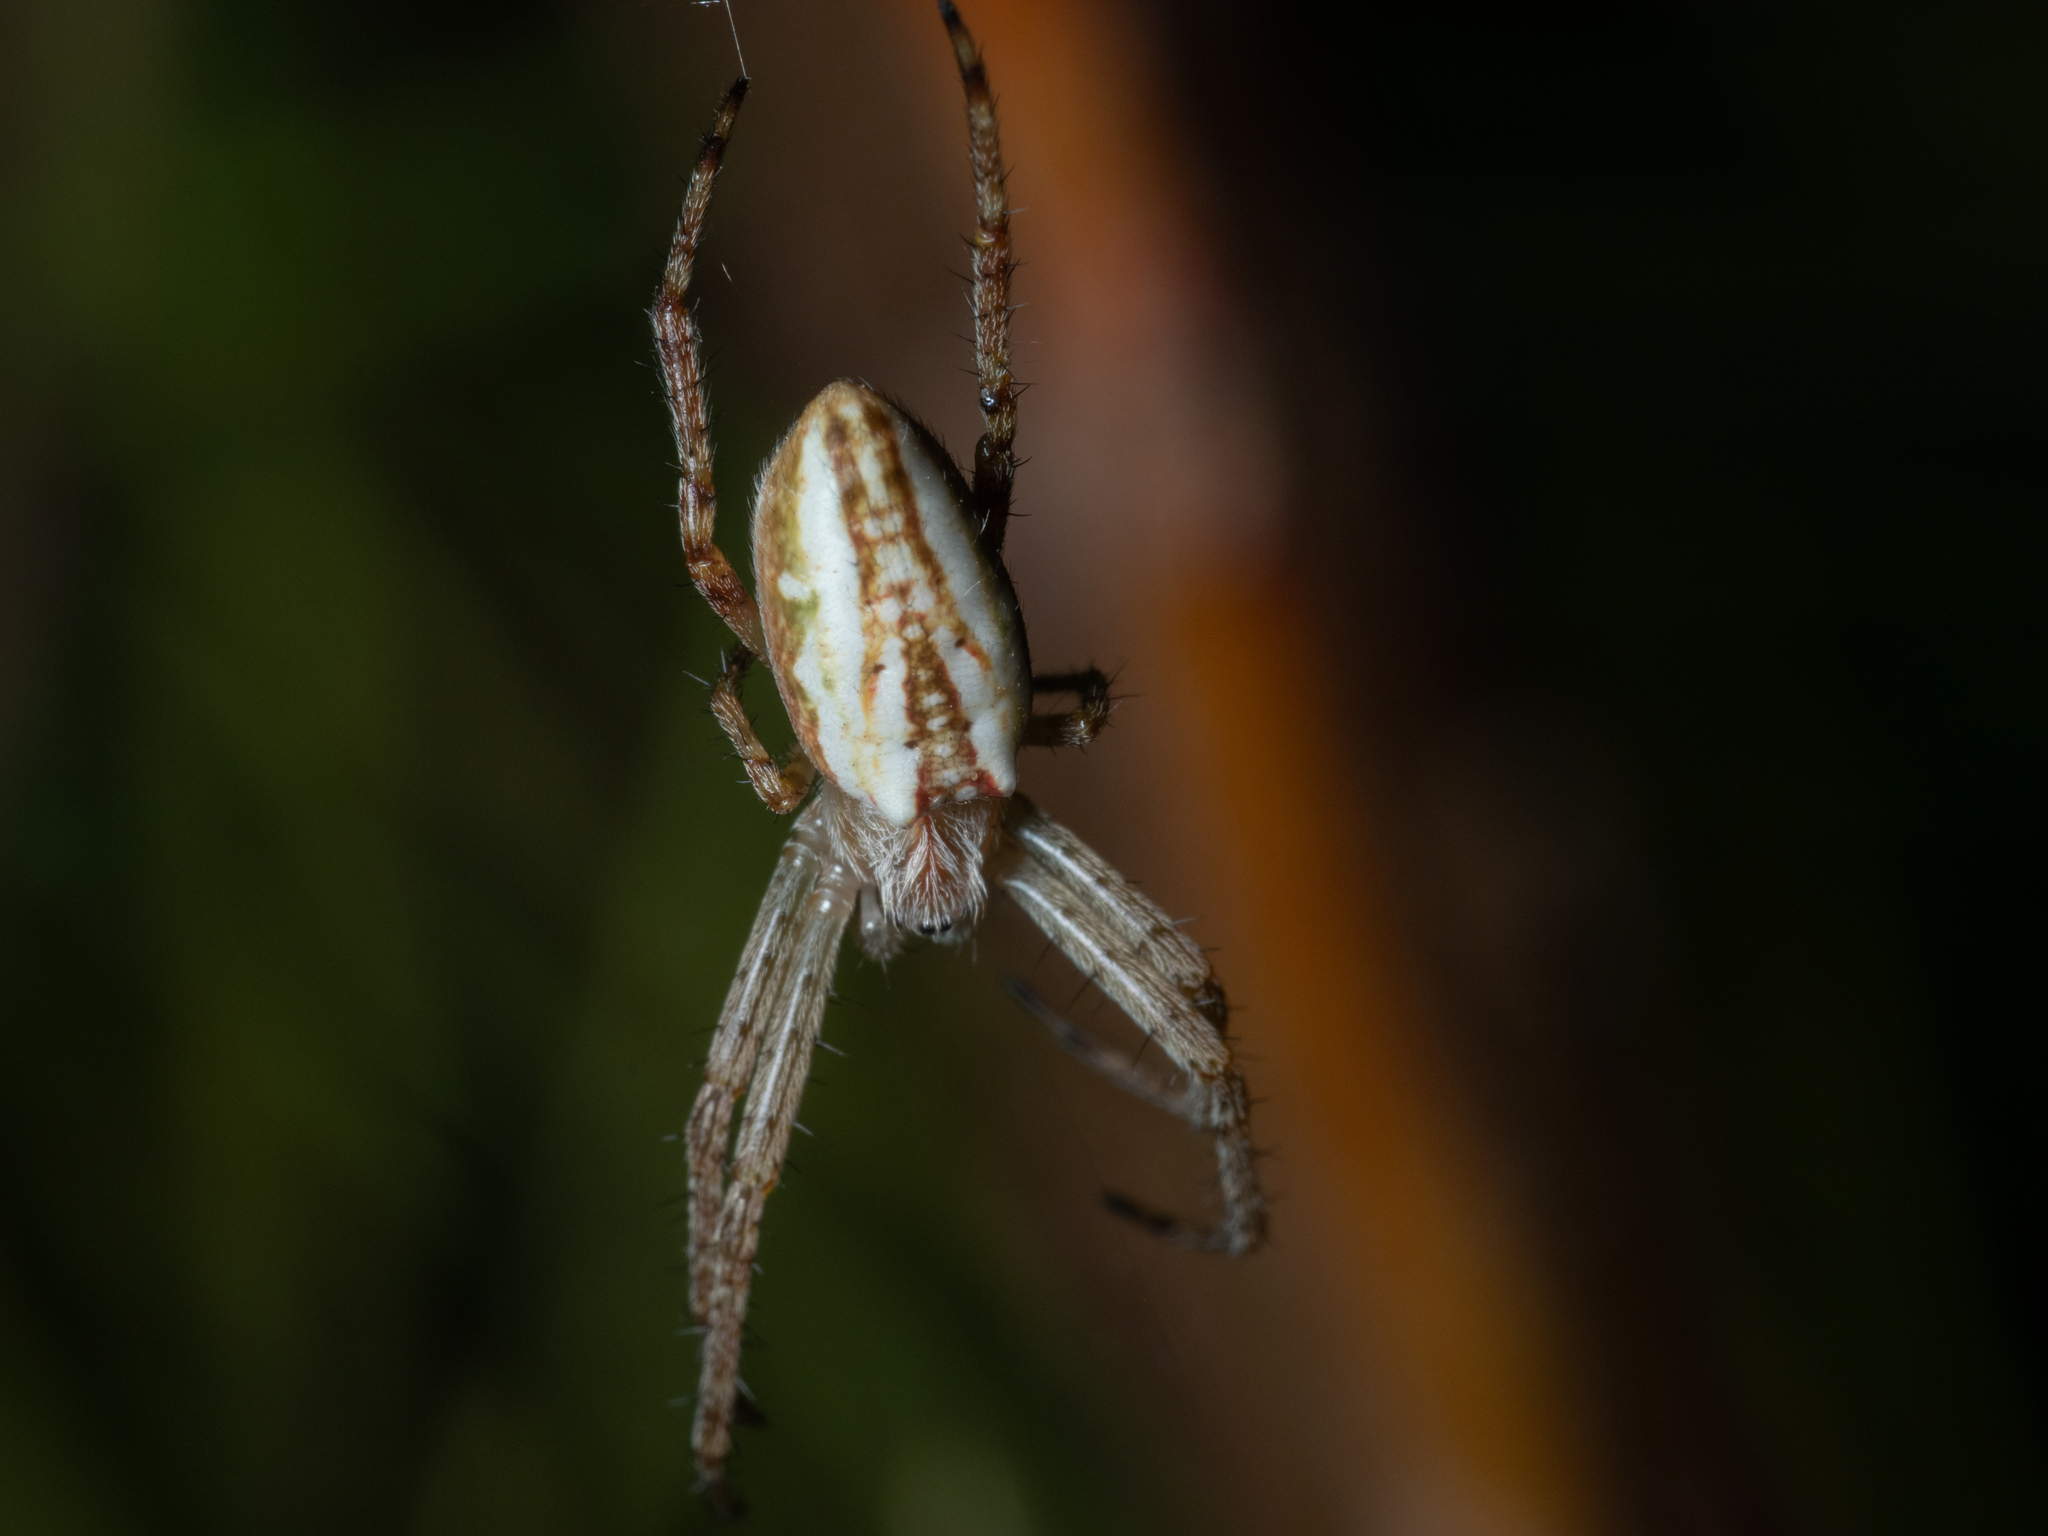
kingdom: Animalia
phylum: Arthropoda
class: Arachnida
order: Araneae
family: Araneidae
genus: Plebs
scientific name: Plebs bradleyi
